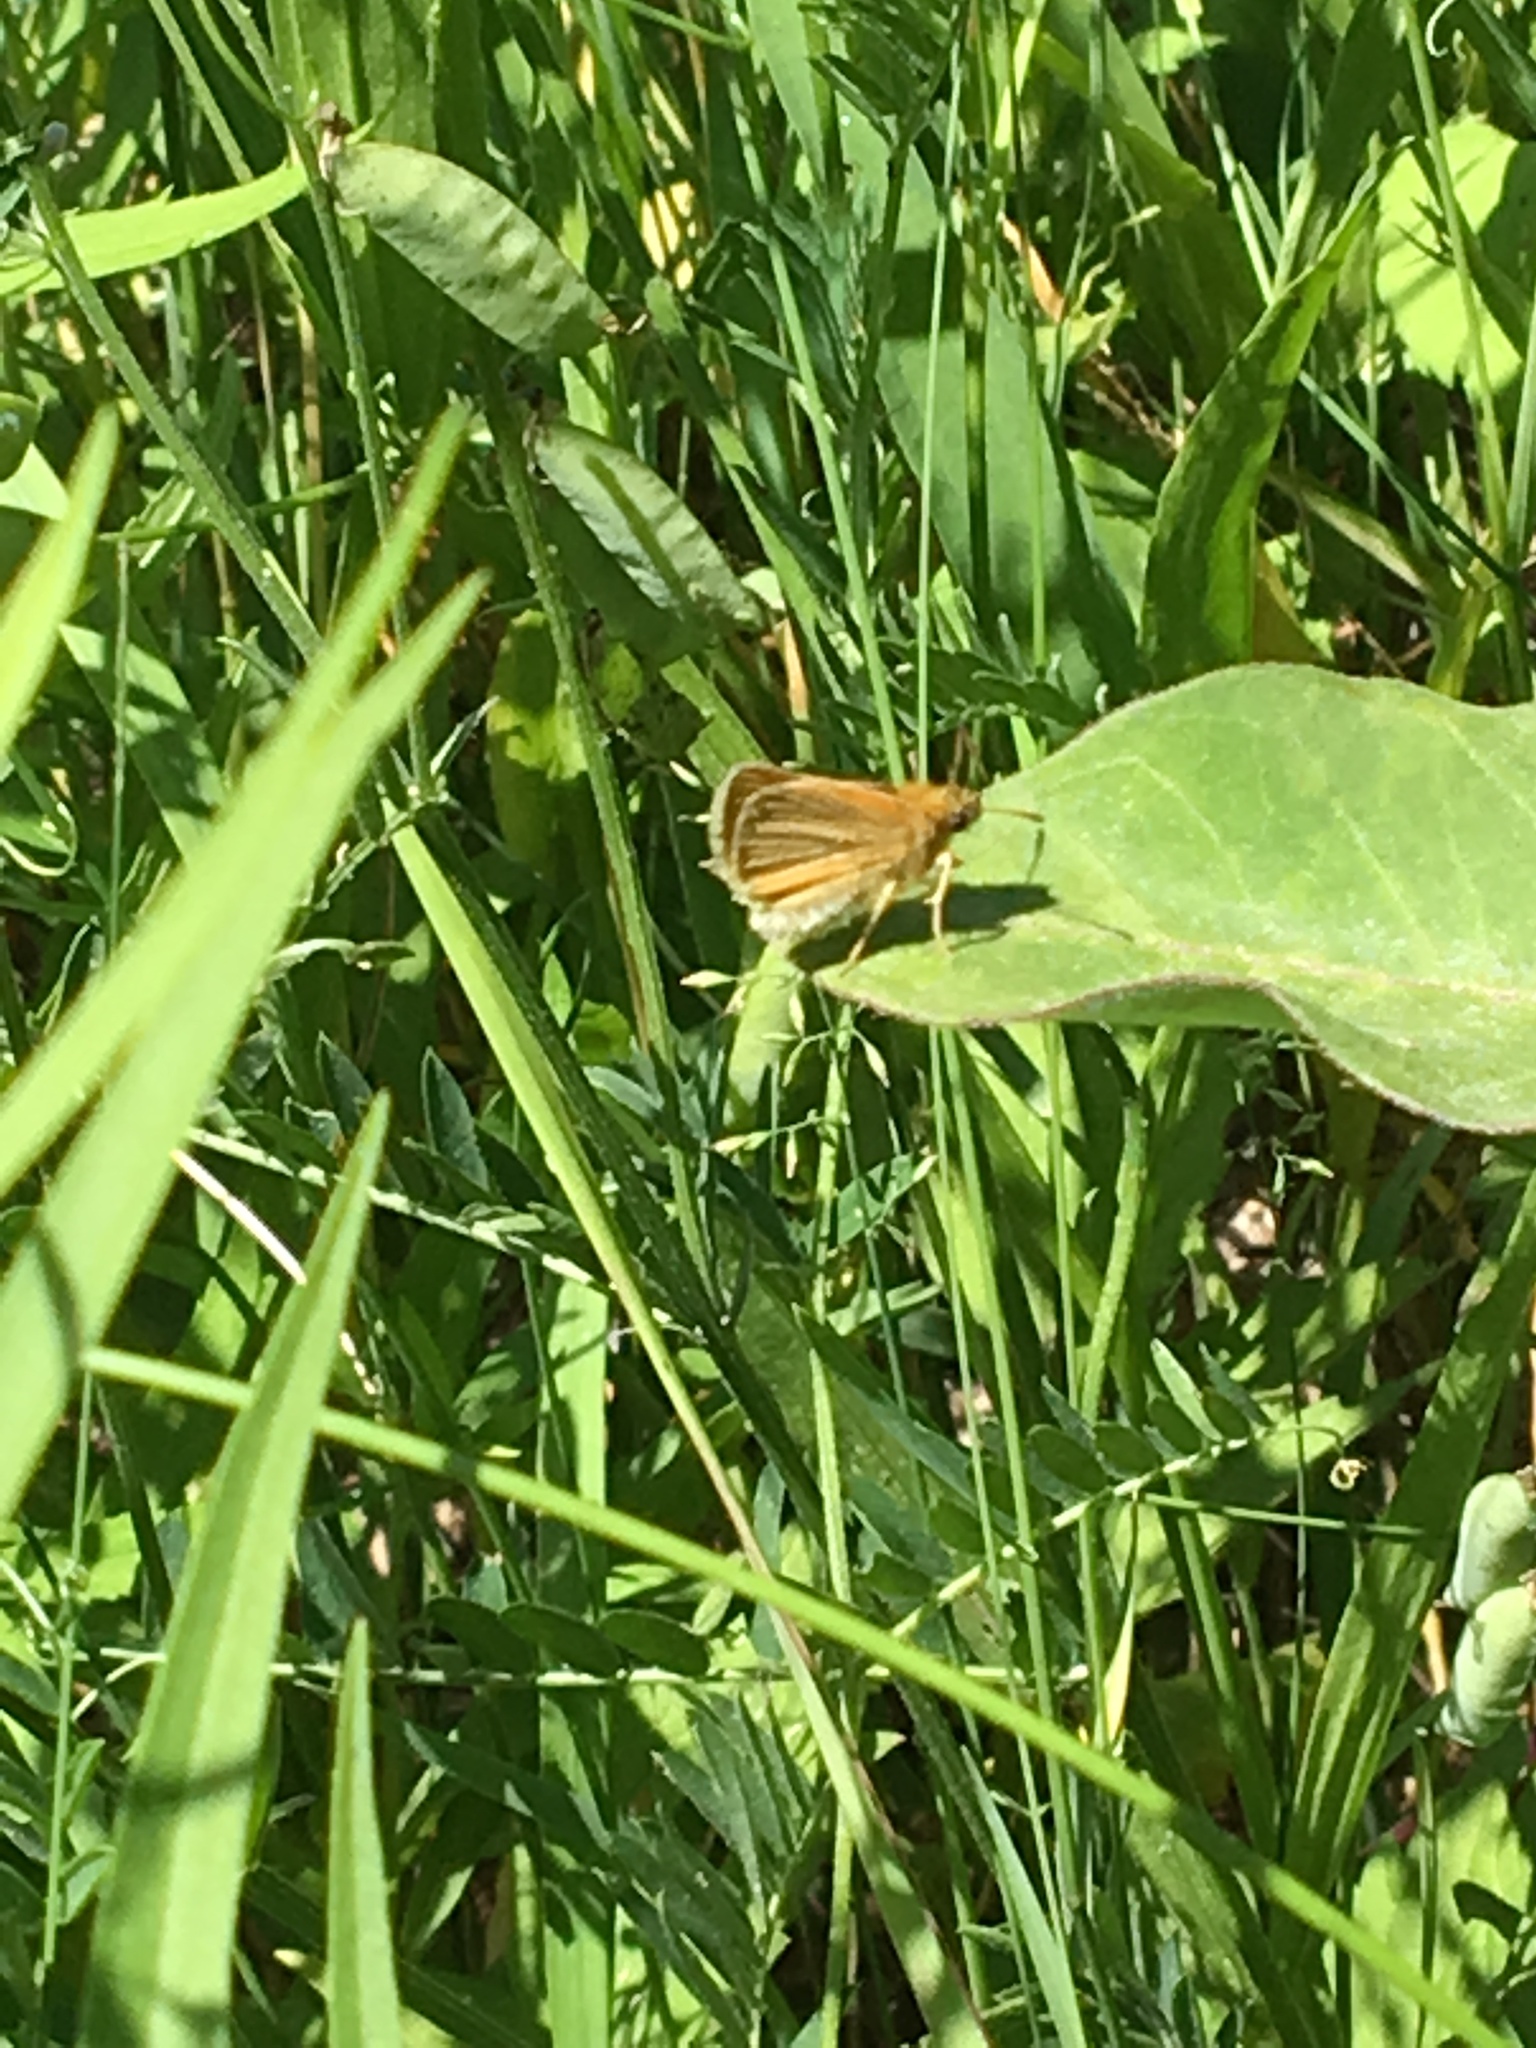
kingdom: Animalia
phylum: Arthropoda
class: Insecta
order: Lepidoptera
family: Hesperiidae
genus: Thymelicus
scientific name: Thymelicus lineola
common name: Essex skipper
